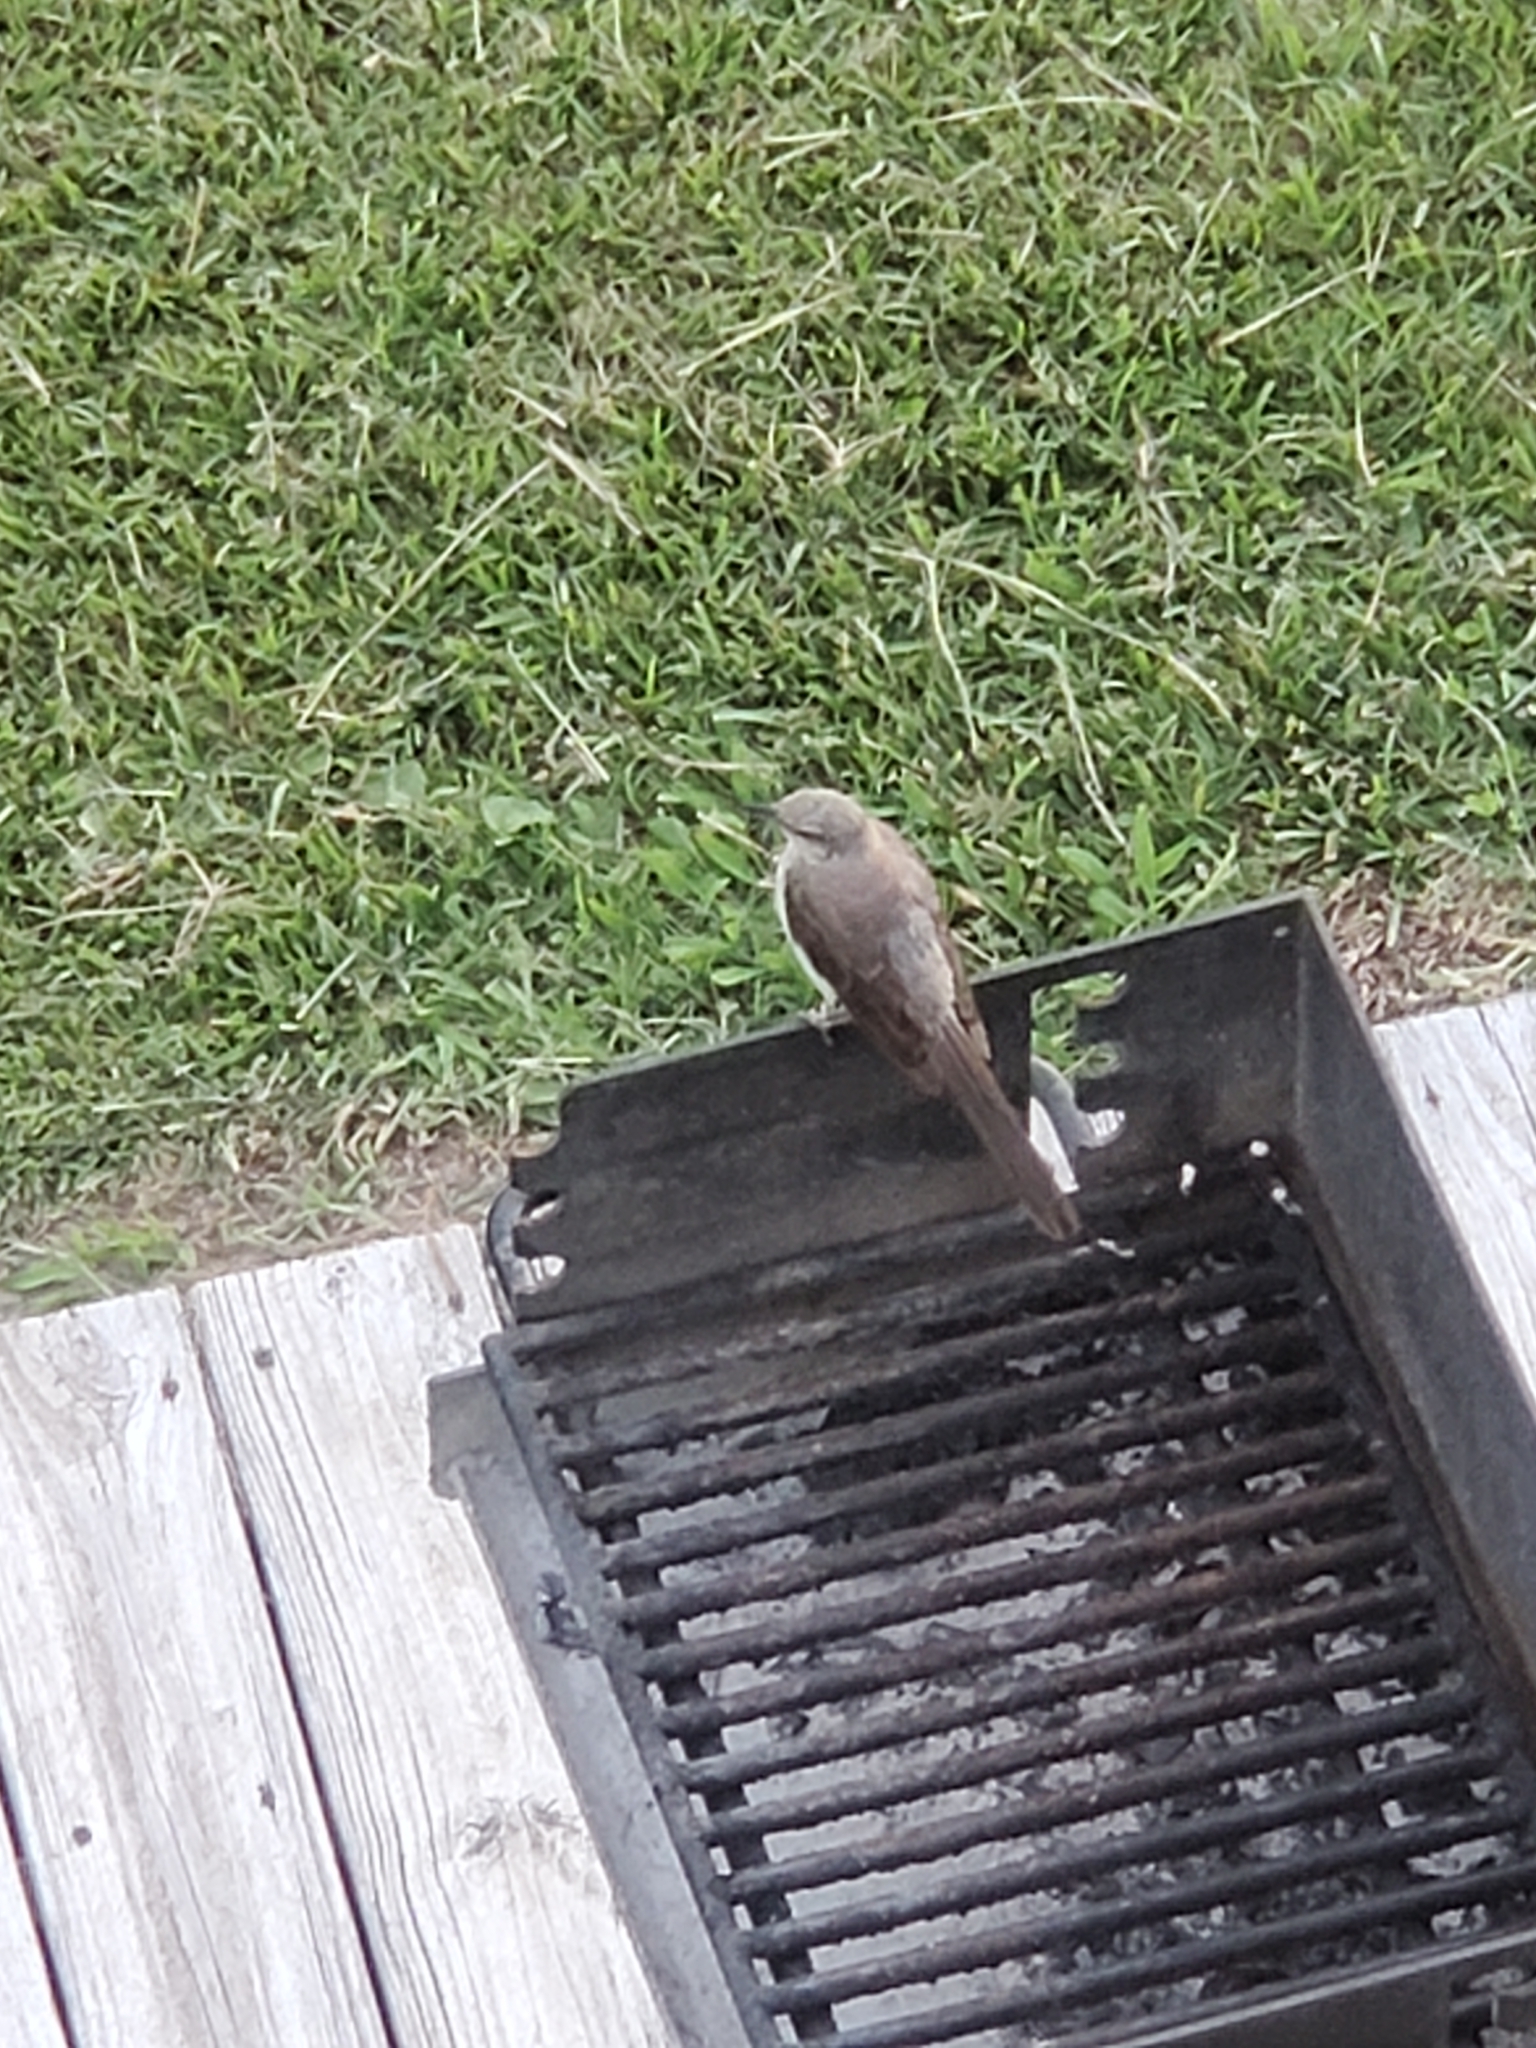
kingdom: Animalia
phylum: Chordata
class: Aves
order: Passeriformes
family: Mimidae
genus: Mimus
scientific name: Mimus polyglottos
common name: Northern mockingbird
